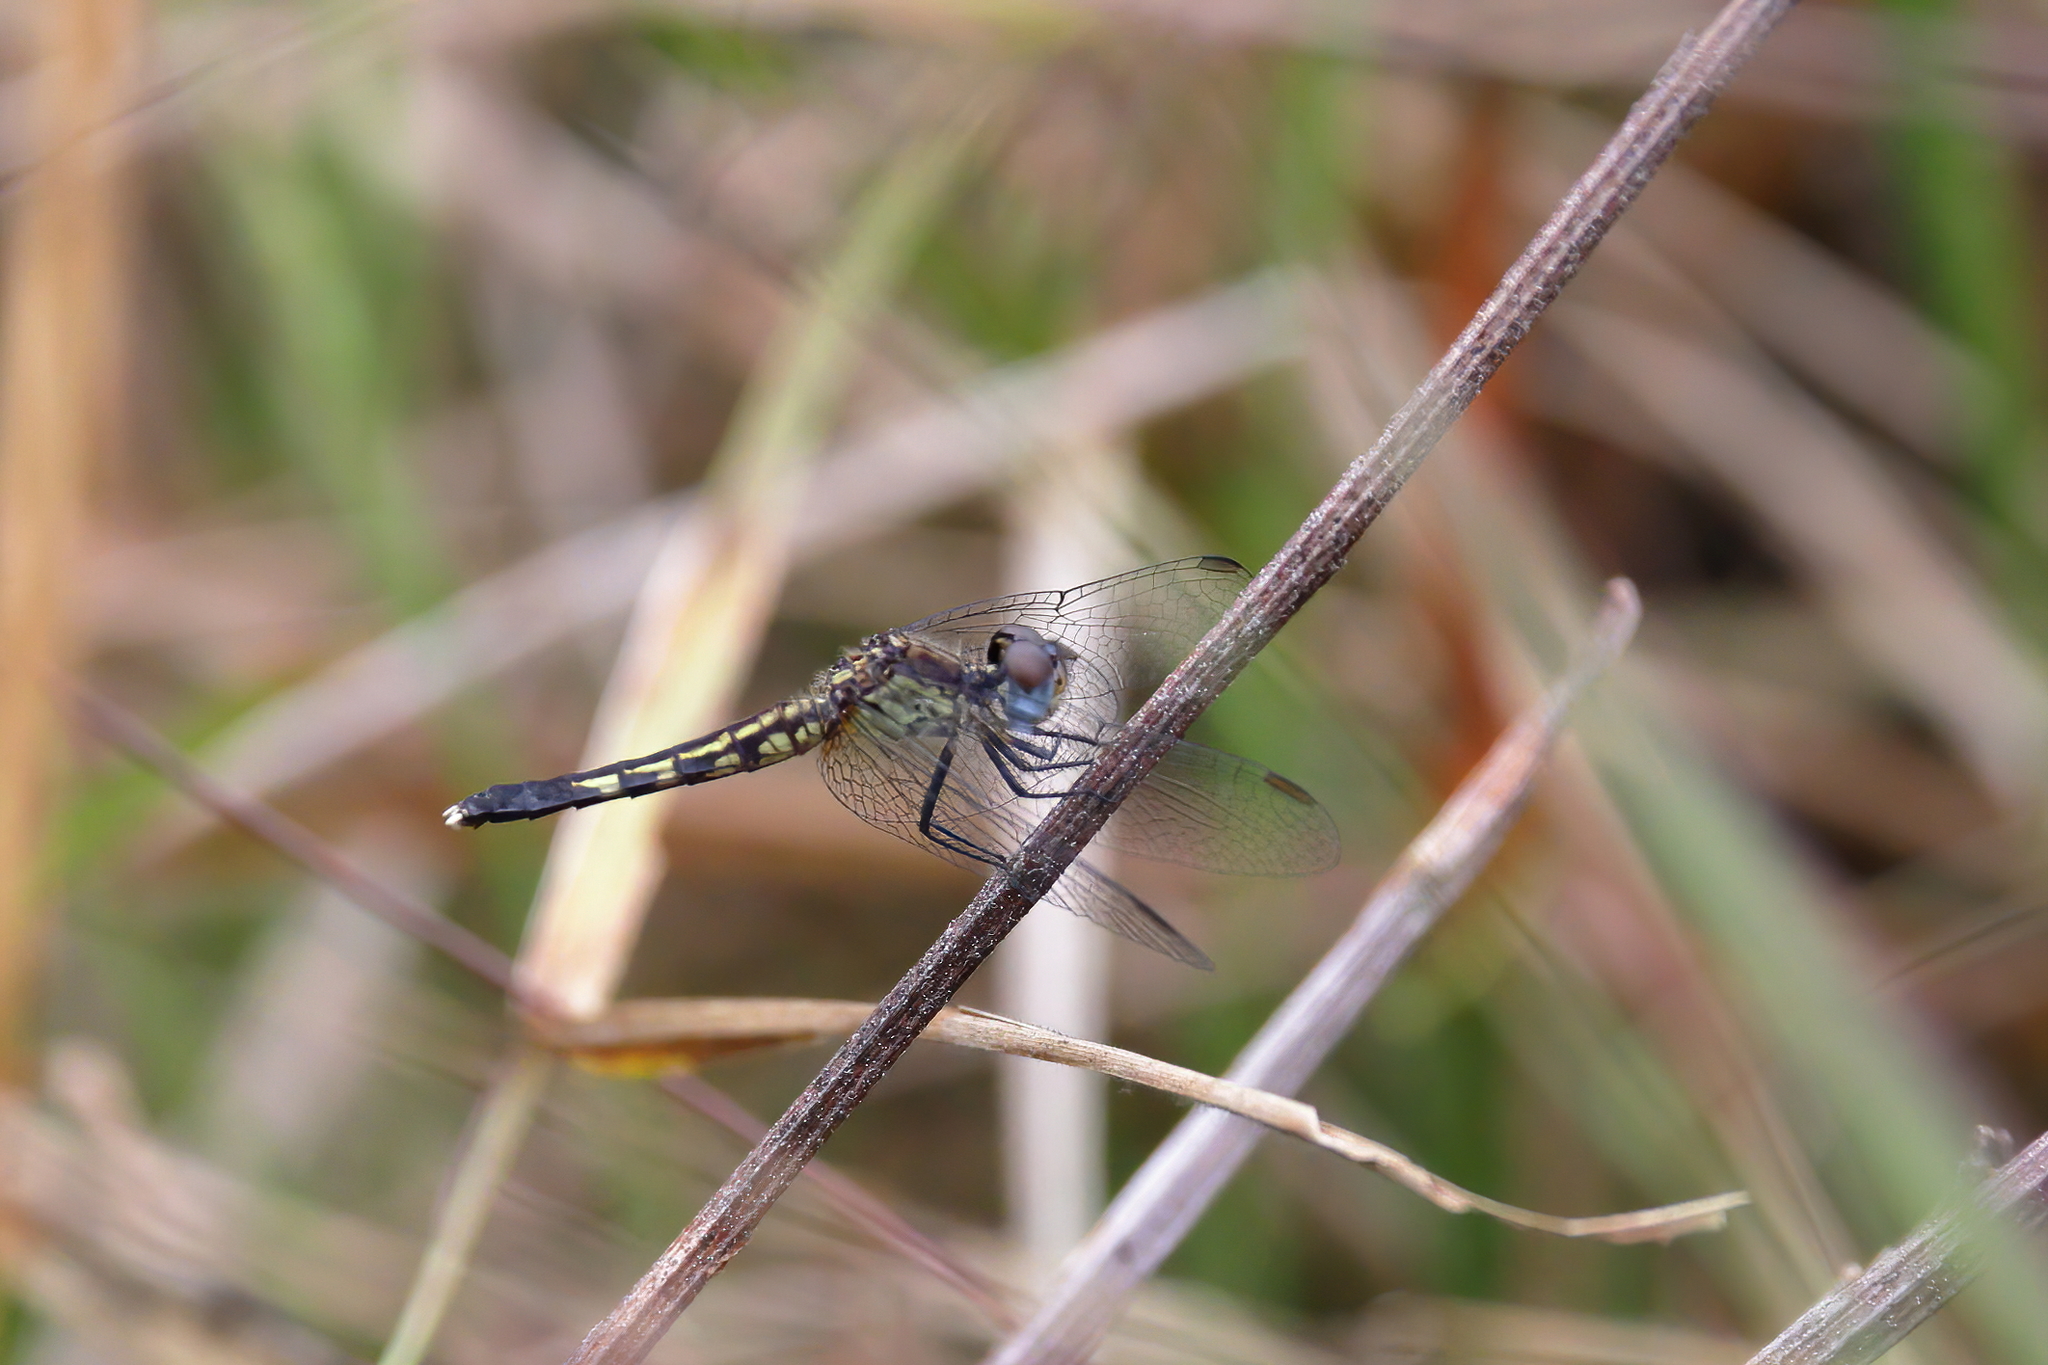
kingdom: Animalia
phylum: Arthropoda
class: Insecta
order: Odonata
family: Libellulidae
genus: Erythrodiplax
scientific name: Erythrodiplax minuscula
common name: Little blue dragonlet
